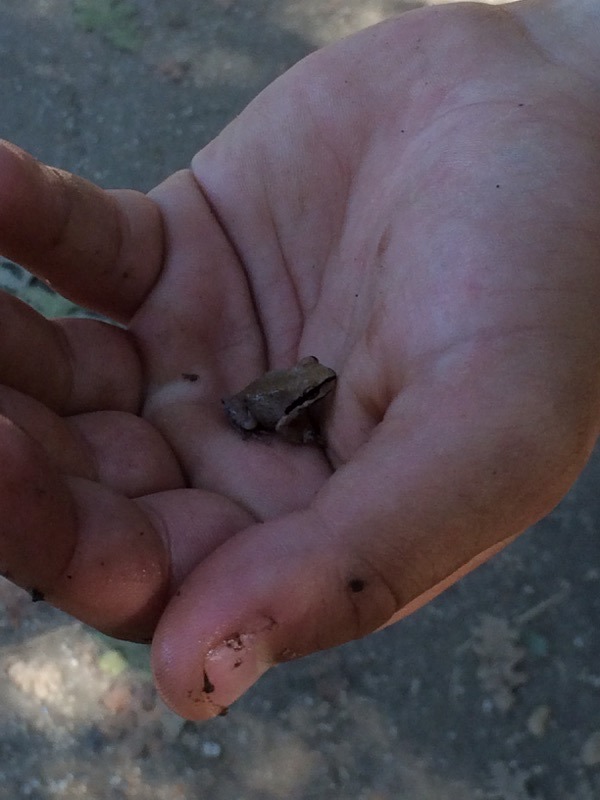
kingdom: Animalia
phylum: Chordata
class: Amphibia
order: Anura
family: Hylidae
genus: Pseudacris
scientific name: Pseudacris regilla
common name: Pacific chorus frog
